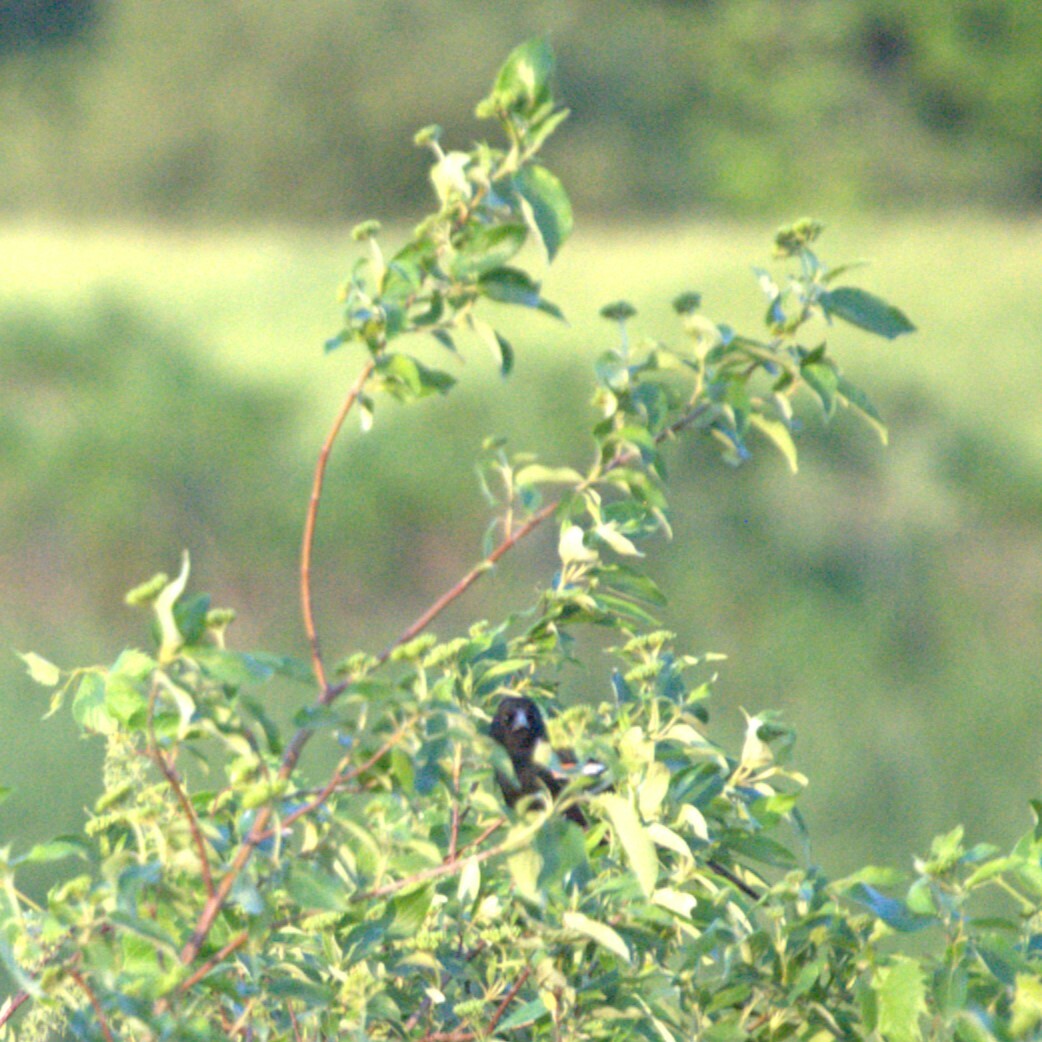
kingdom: Animalia
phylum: Chordata
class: Aves
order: Passeriformes
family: Icteridae
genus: Agelaius
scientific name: Agelaius phoeniceus
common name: Red-winged blackbird
